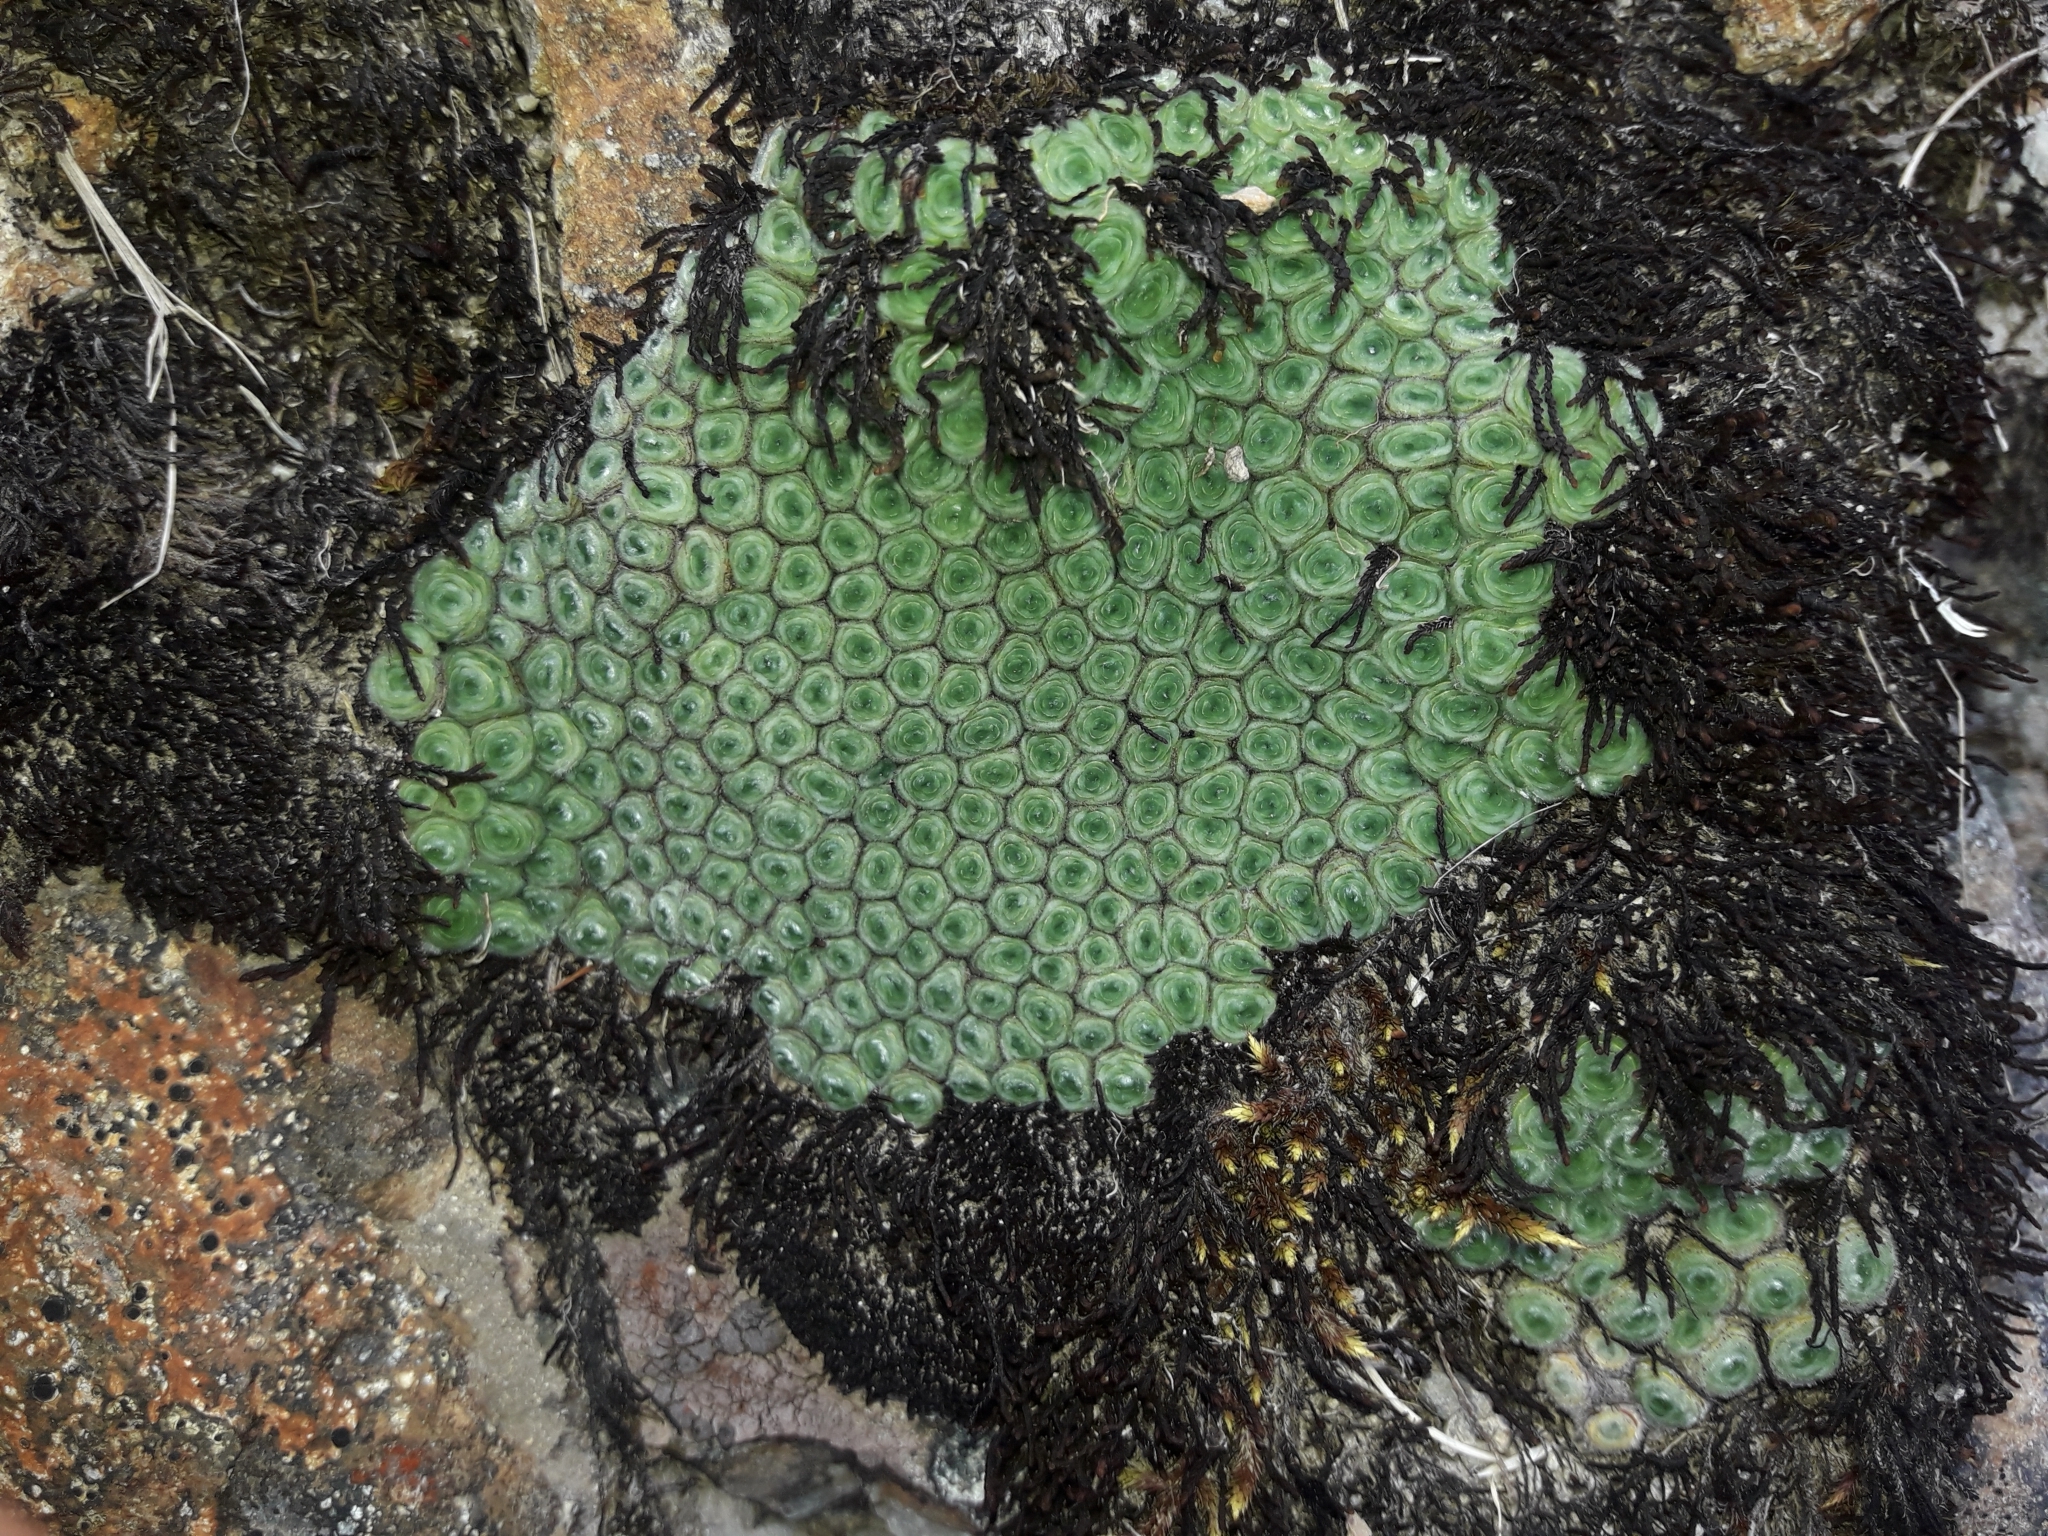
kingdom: Plantae
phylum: Tracheophyta
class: Magnoliopsida
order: Asterales
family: Asteraceae
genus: Raoulia
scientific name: Raoulia rubra
